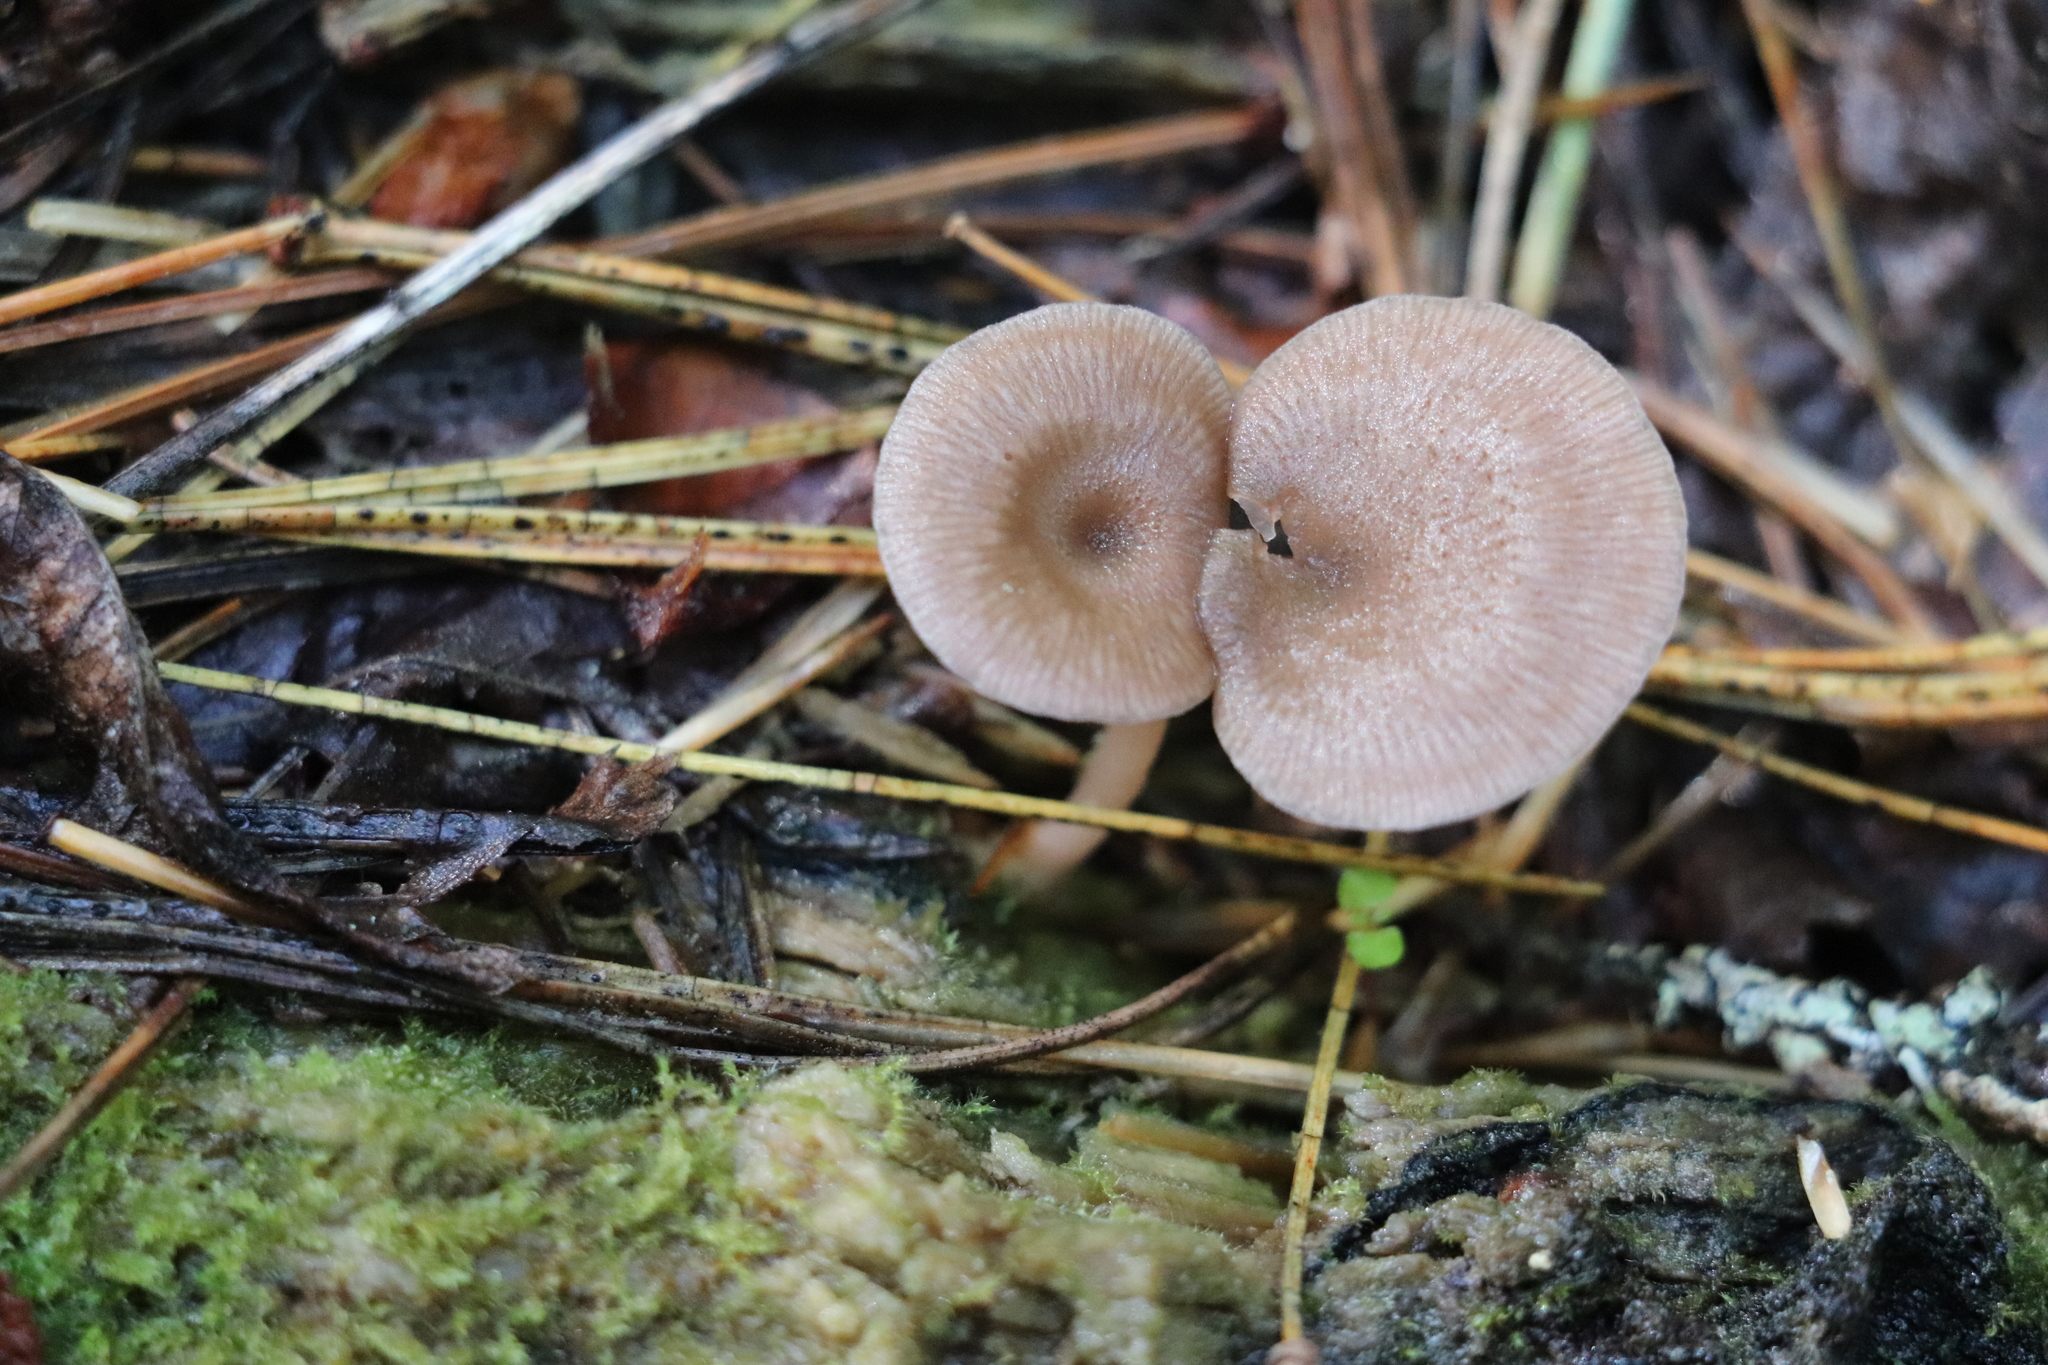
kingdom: Fungi
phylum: Basidiomycota
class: Agaricomycetes
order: Agaricales
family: Hygrophoraceae
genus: Arrhenia
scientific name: Arrhenia discorosea
